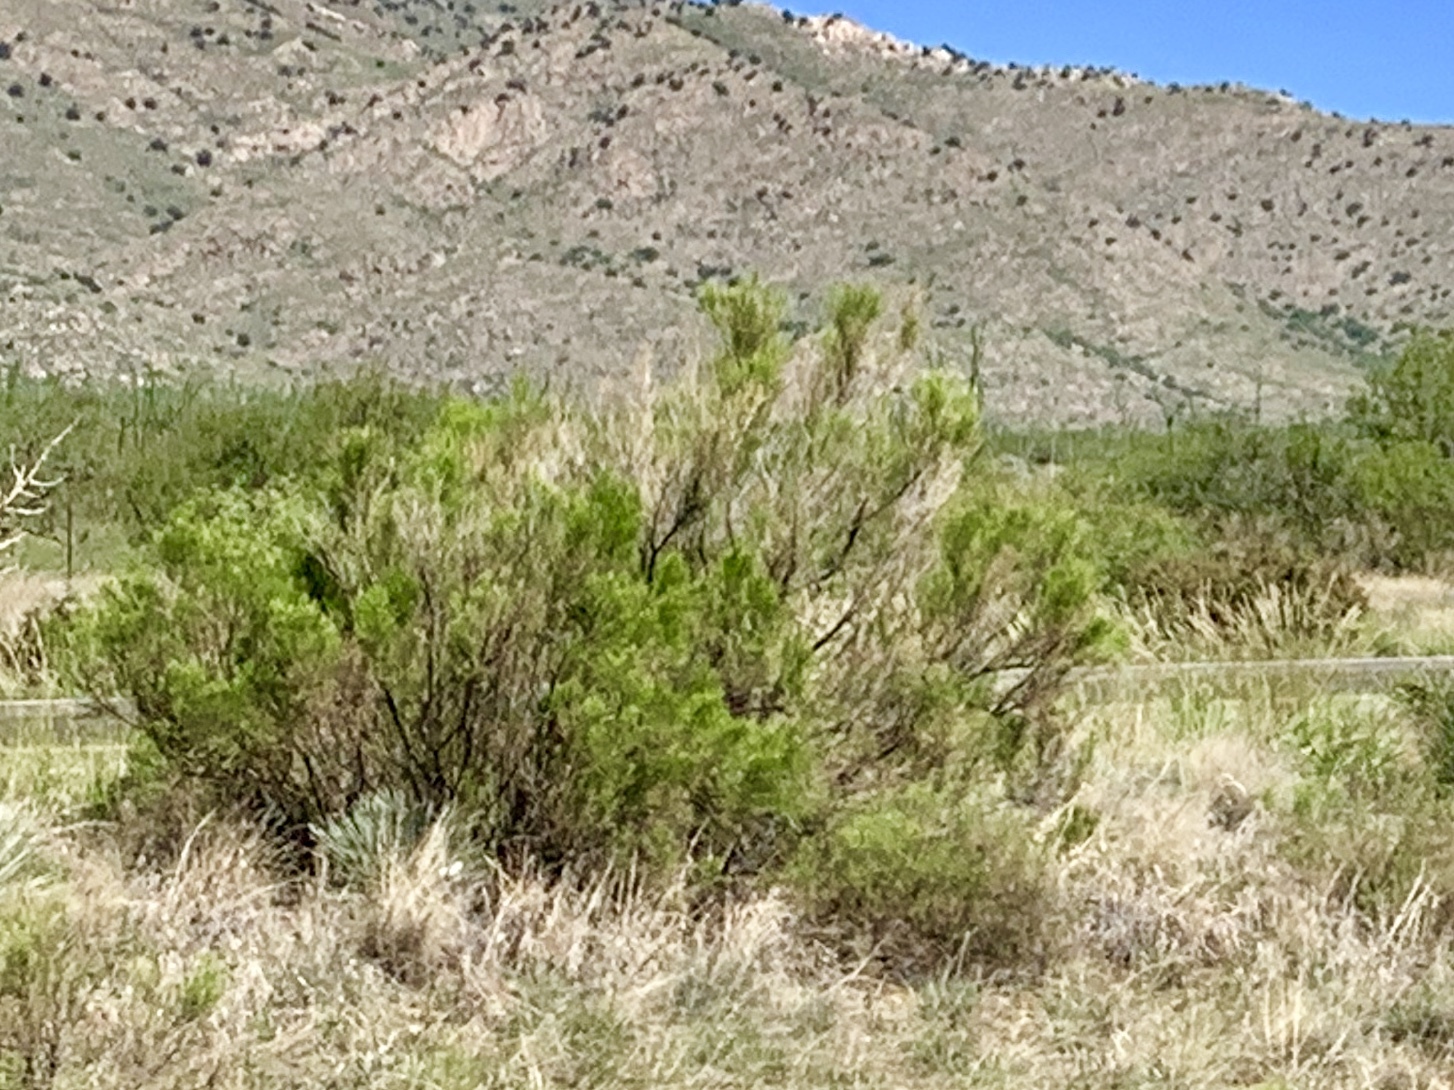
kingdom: Plantae
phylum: Tracheophyta
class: Magnoliopsida
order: Asterales
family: Asteraceae
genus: Baccharis
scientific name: Baccharis sarothroides
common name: Desert-broom
